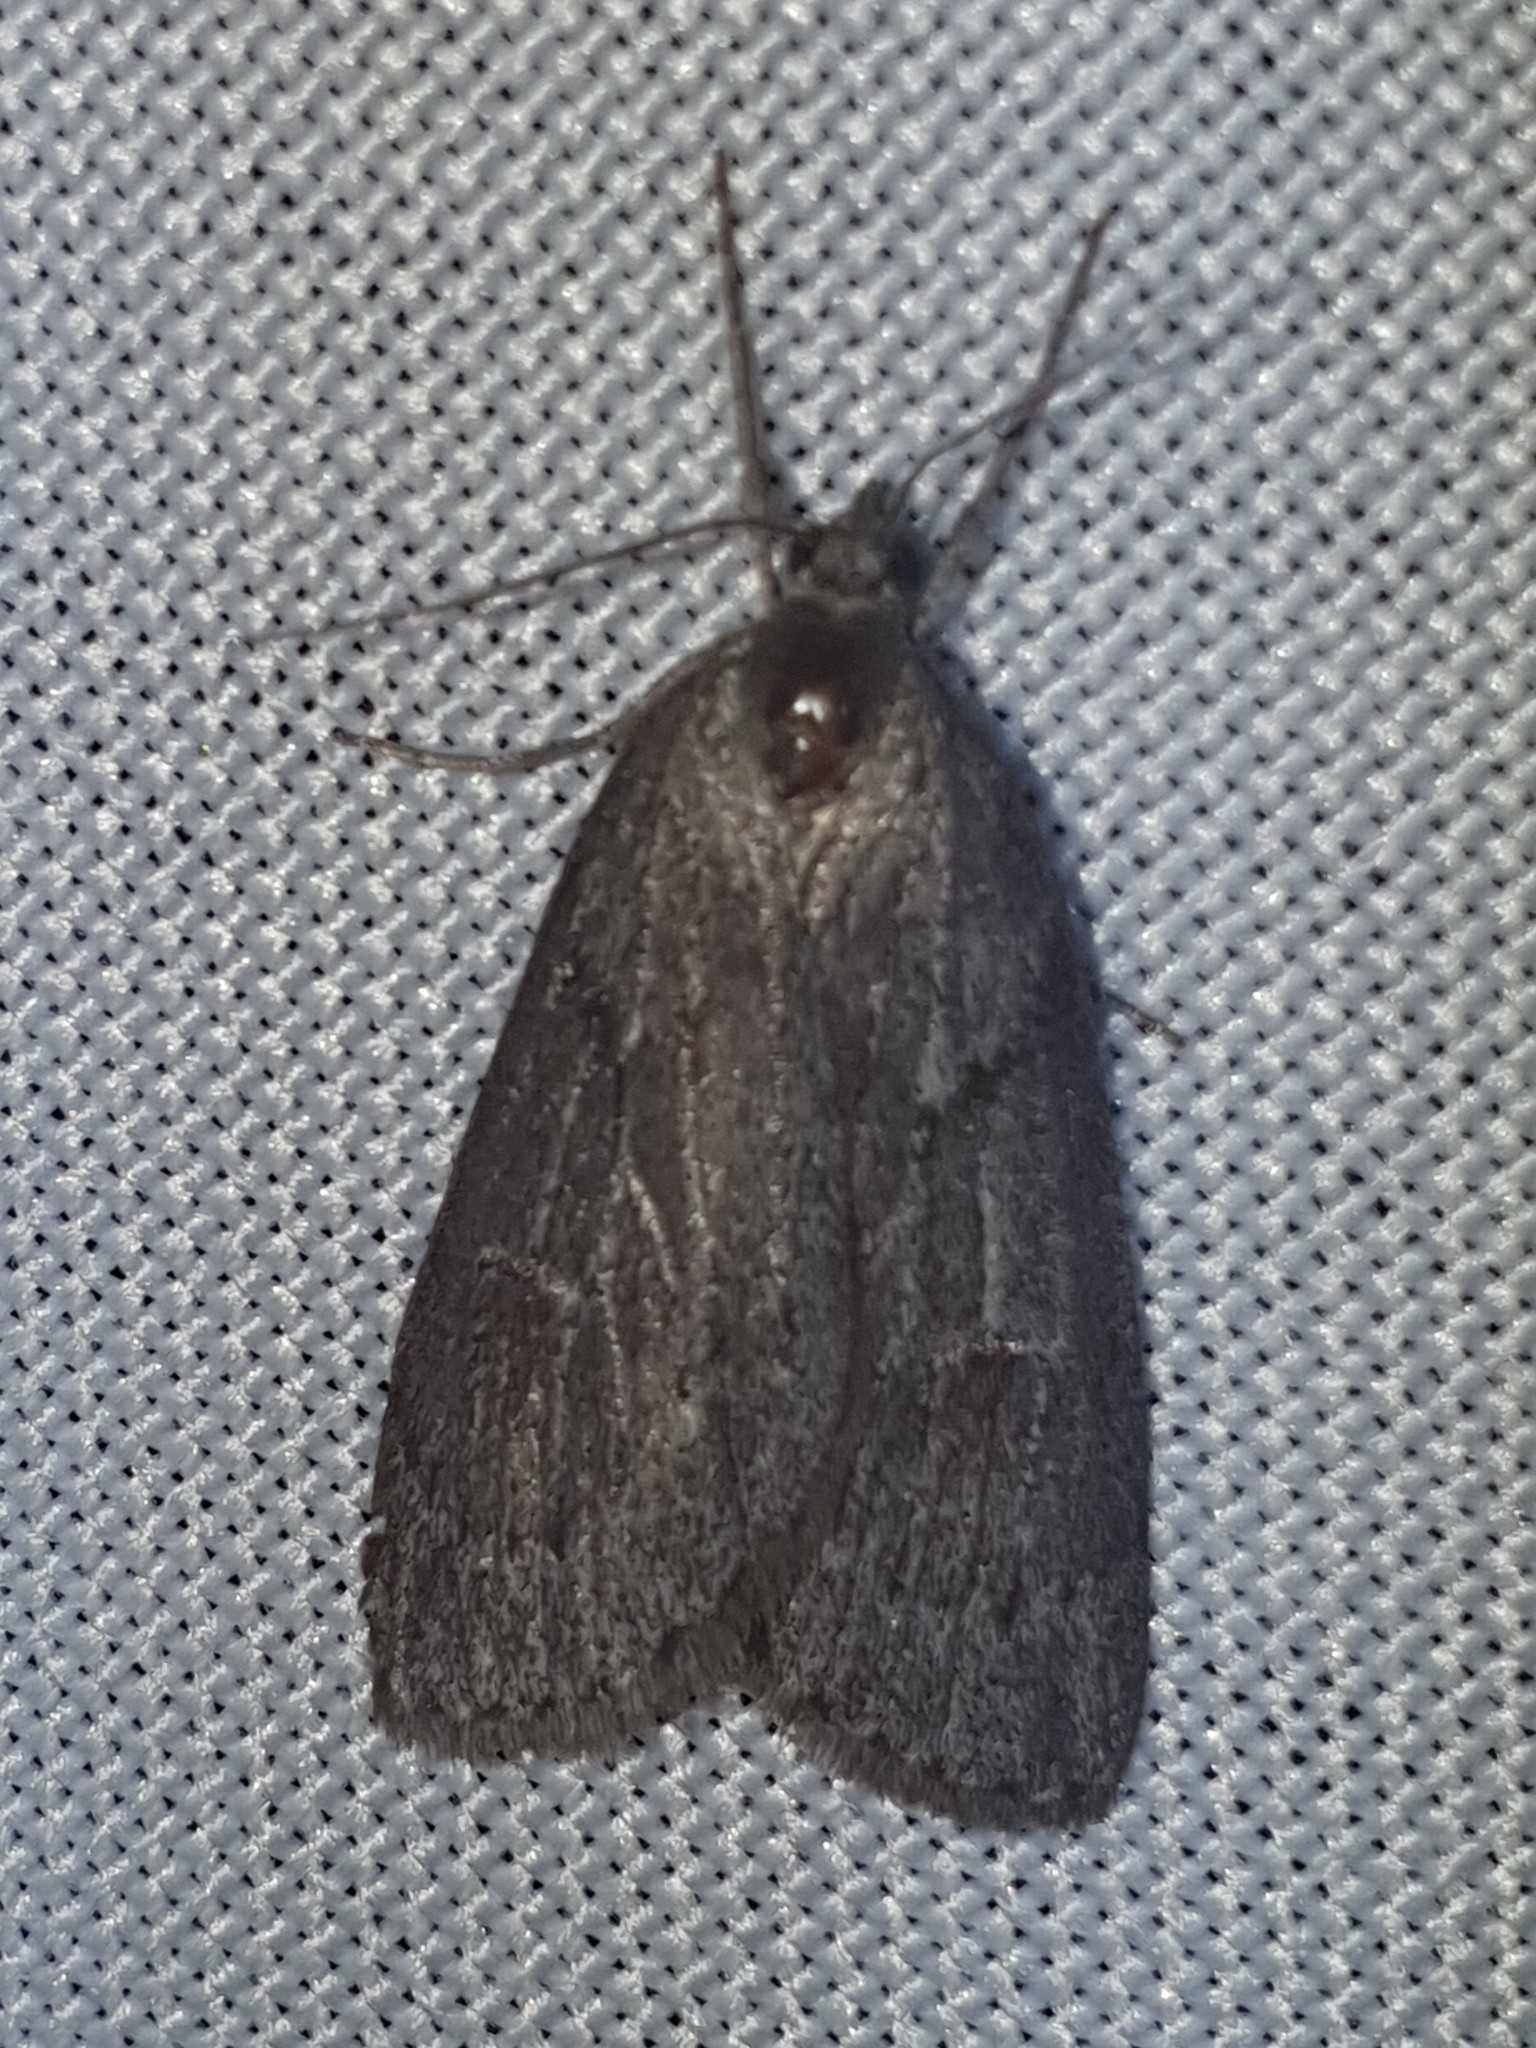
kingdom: Animalia
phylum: Arthropoda
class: Insecta
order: Lepidoptera
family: Geometridae
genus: Pachycnemia
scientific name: Pachycnemia hippocastanaria
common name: Horse chestnut
